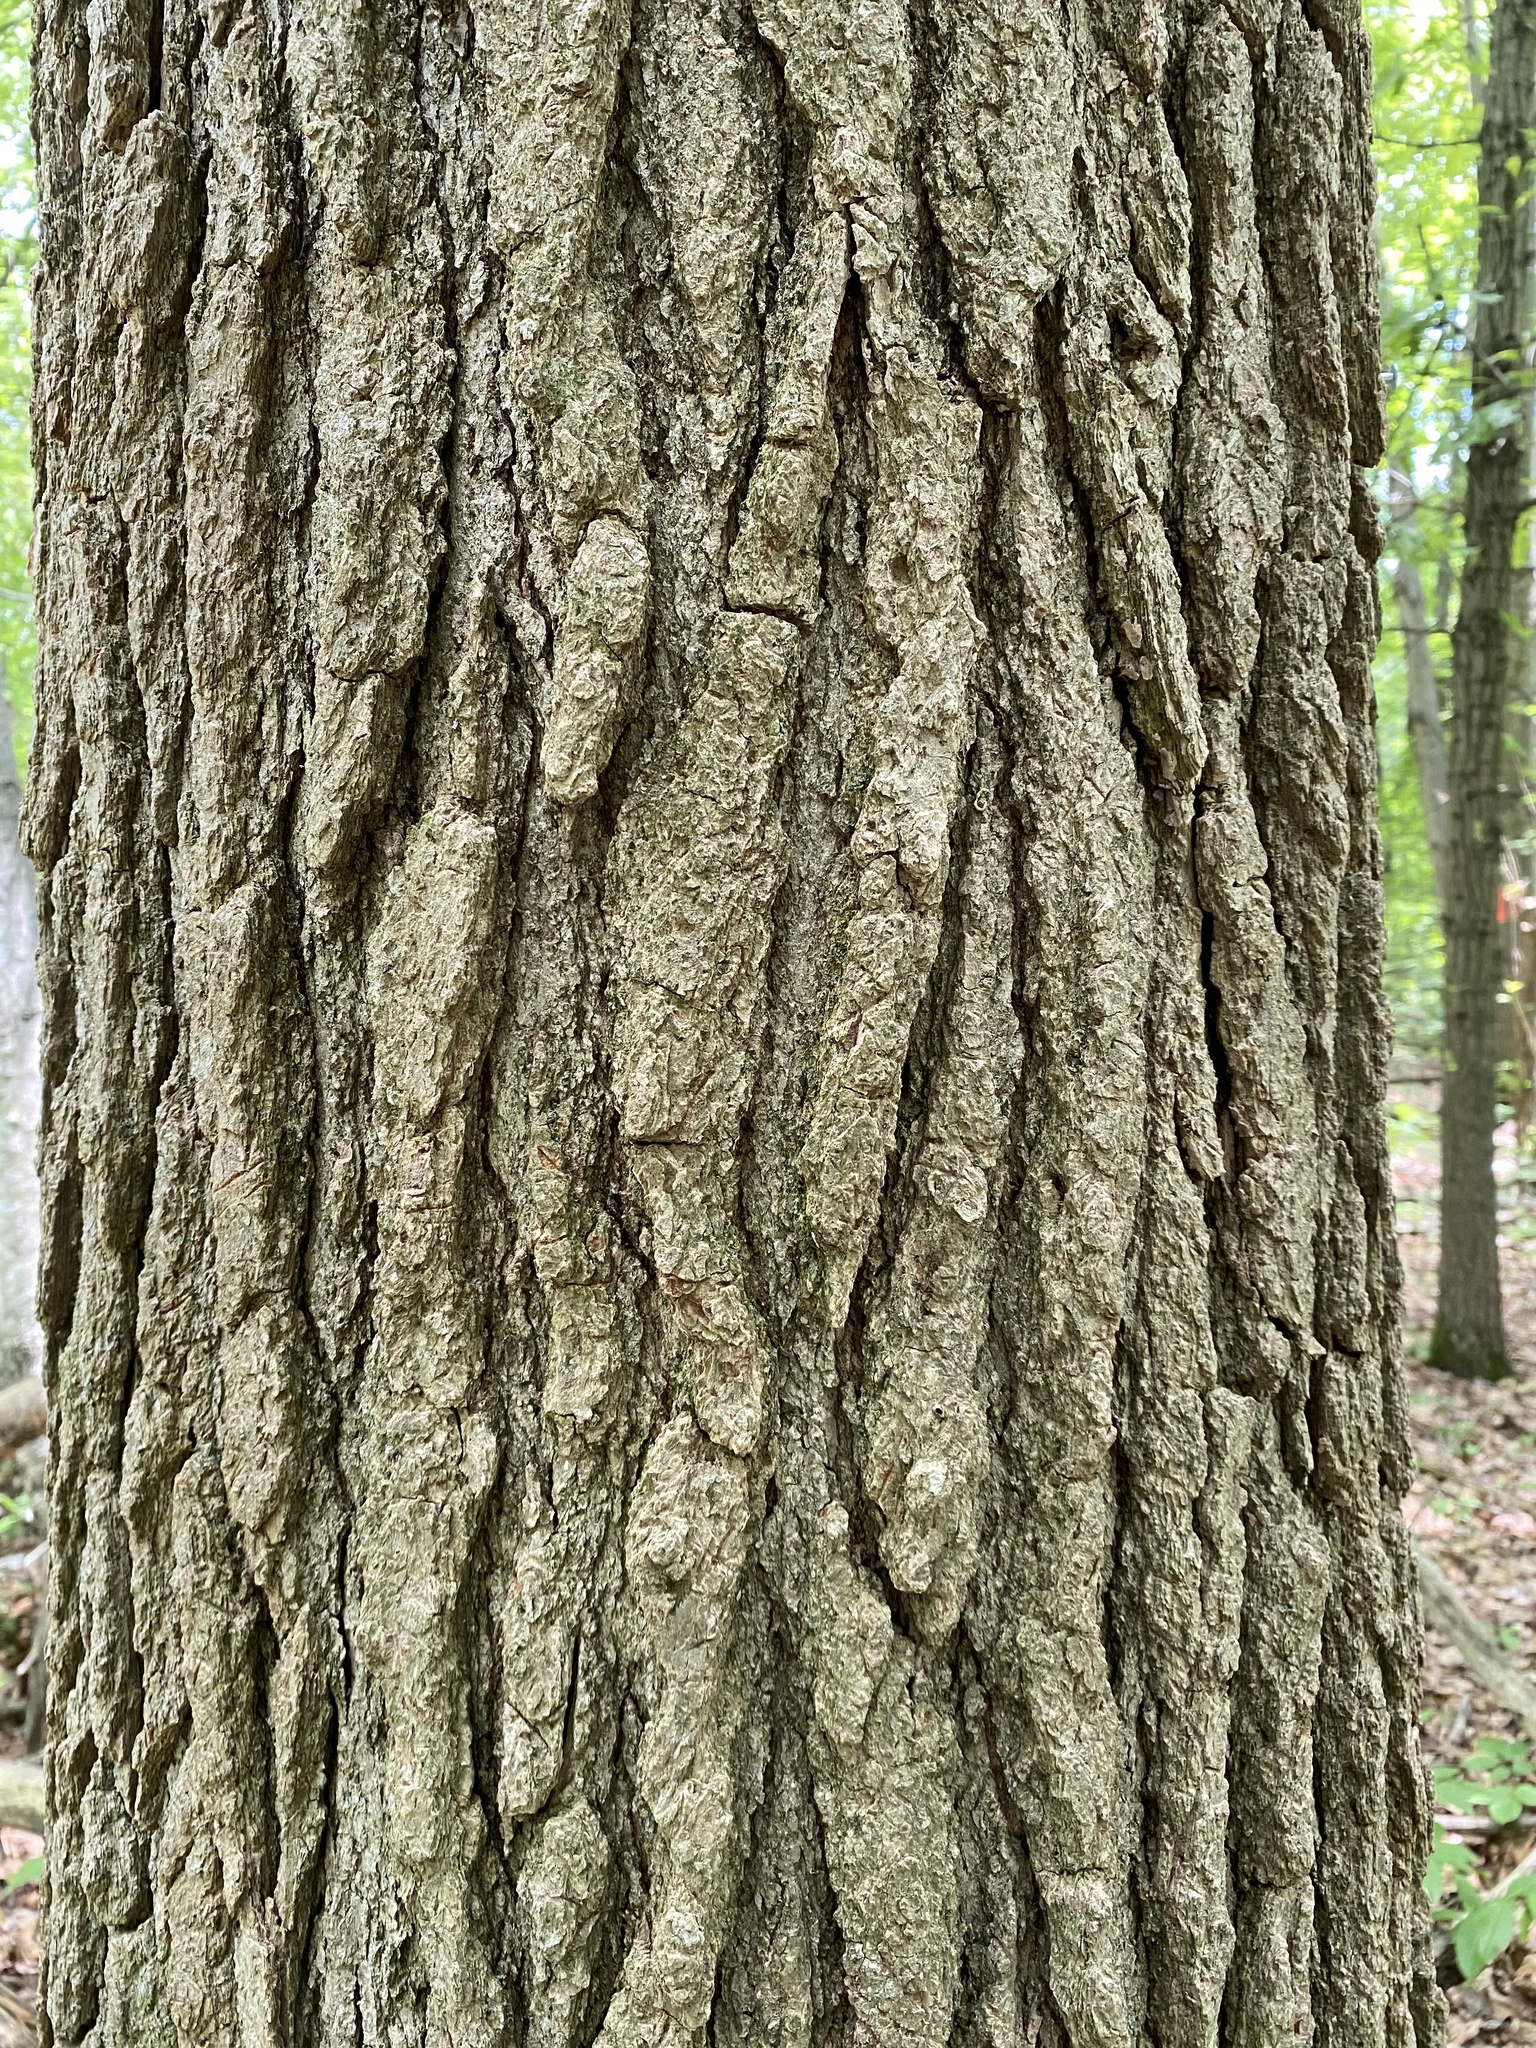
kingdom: Plantae
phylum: Tracheophyta
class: Magnoliopsida
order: Saxifragales
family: Altingiaceae
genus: Liquidambar
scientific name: Liquidambar styraciflua
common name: Sweet gum
